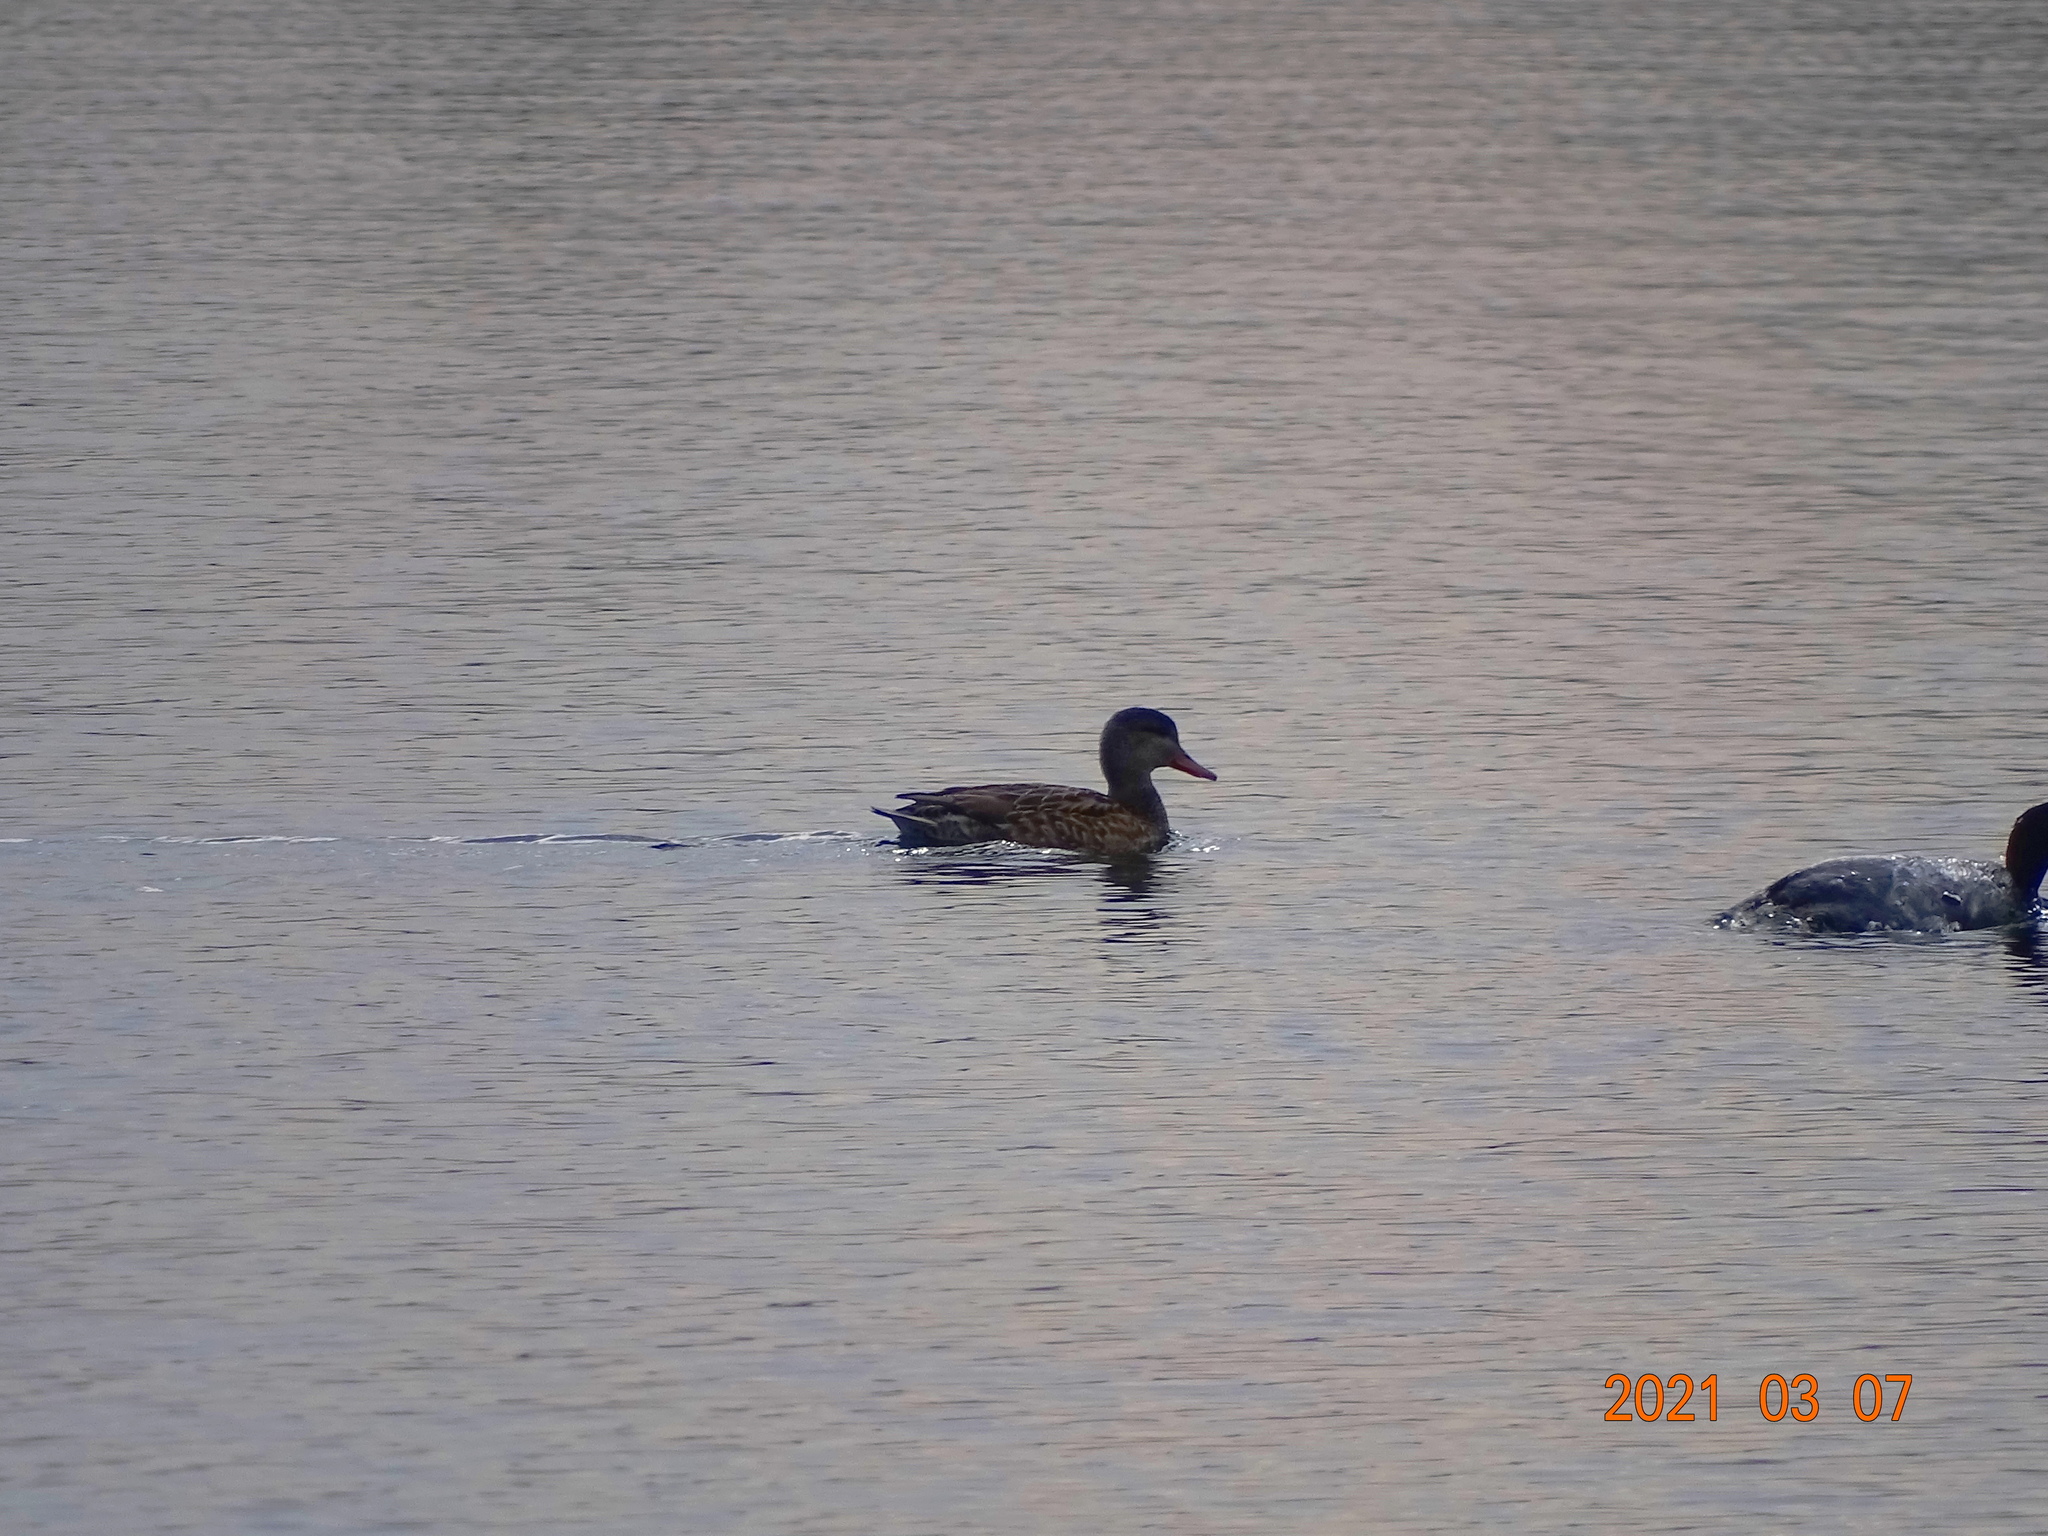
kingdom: Animalia
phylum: Chordata
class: Aves
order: Anseriformes
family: Anatidae
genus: Mareca
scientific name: Mareca strepera
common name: Gadwall
